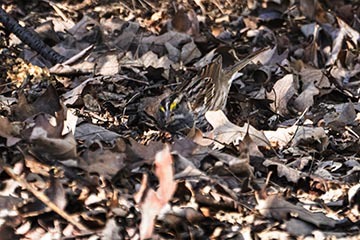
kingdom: Animalia
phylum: Chordata
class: Aves
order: Passeriformes
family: Passerellidae
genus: Zonotrichia
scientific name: Zonotrichia albicollis
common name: White-throated sparrow
